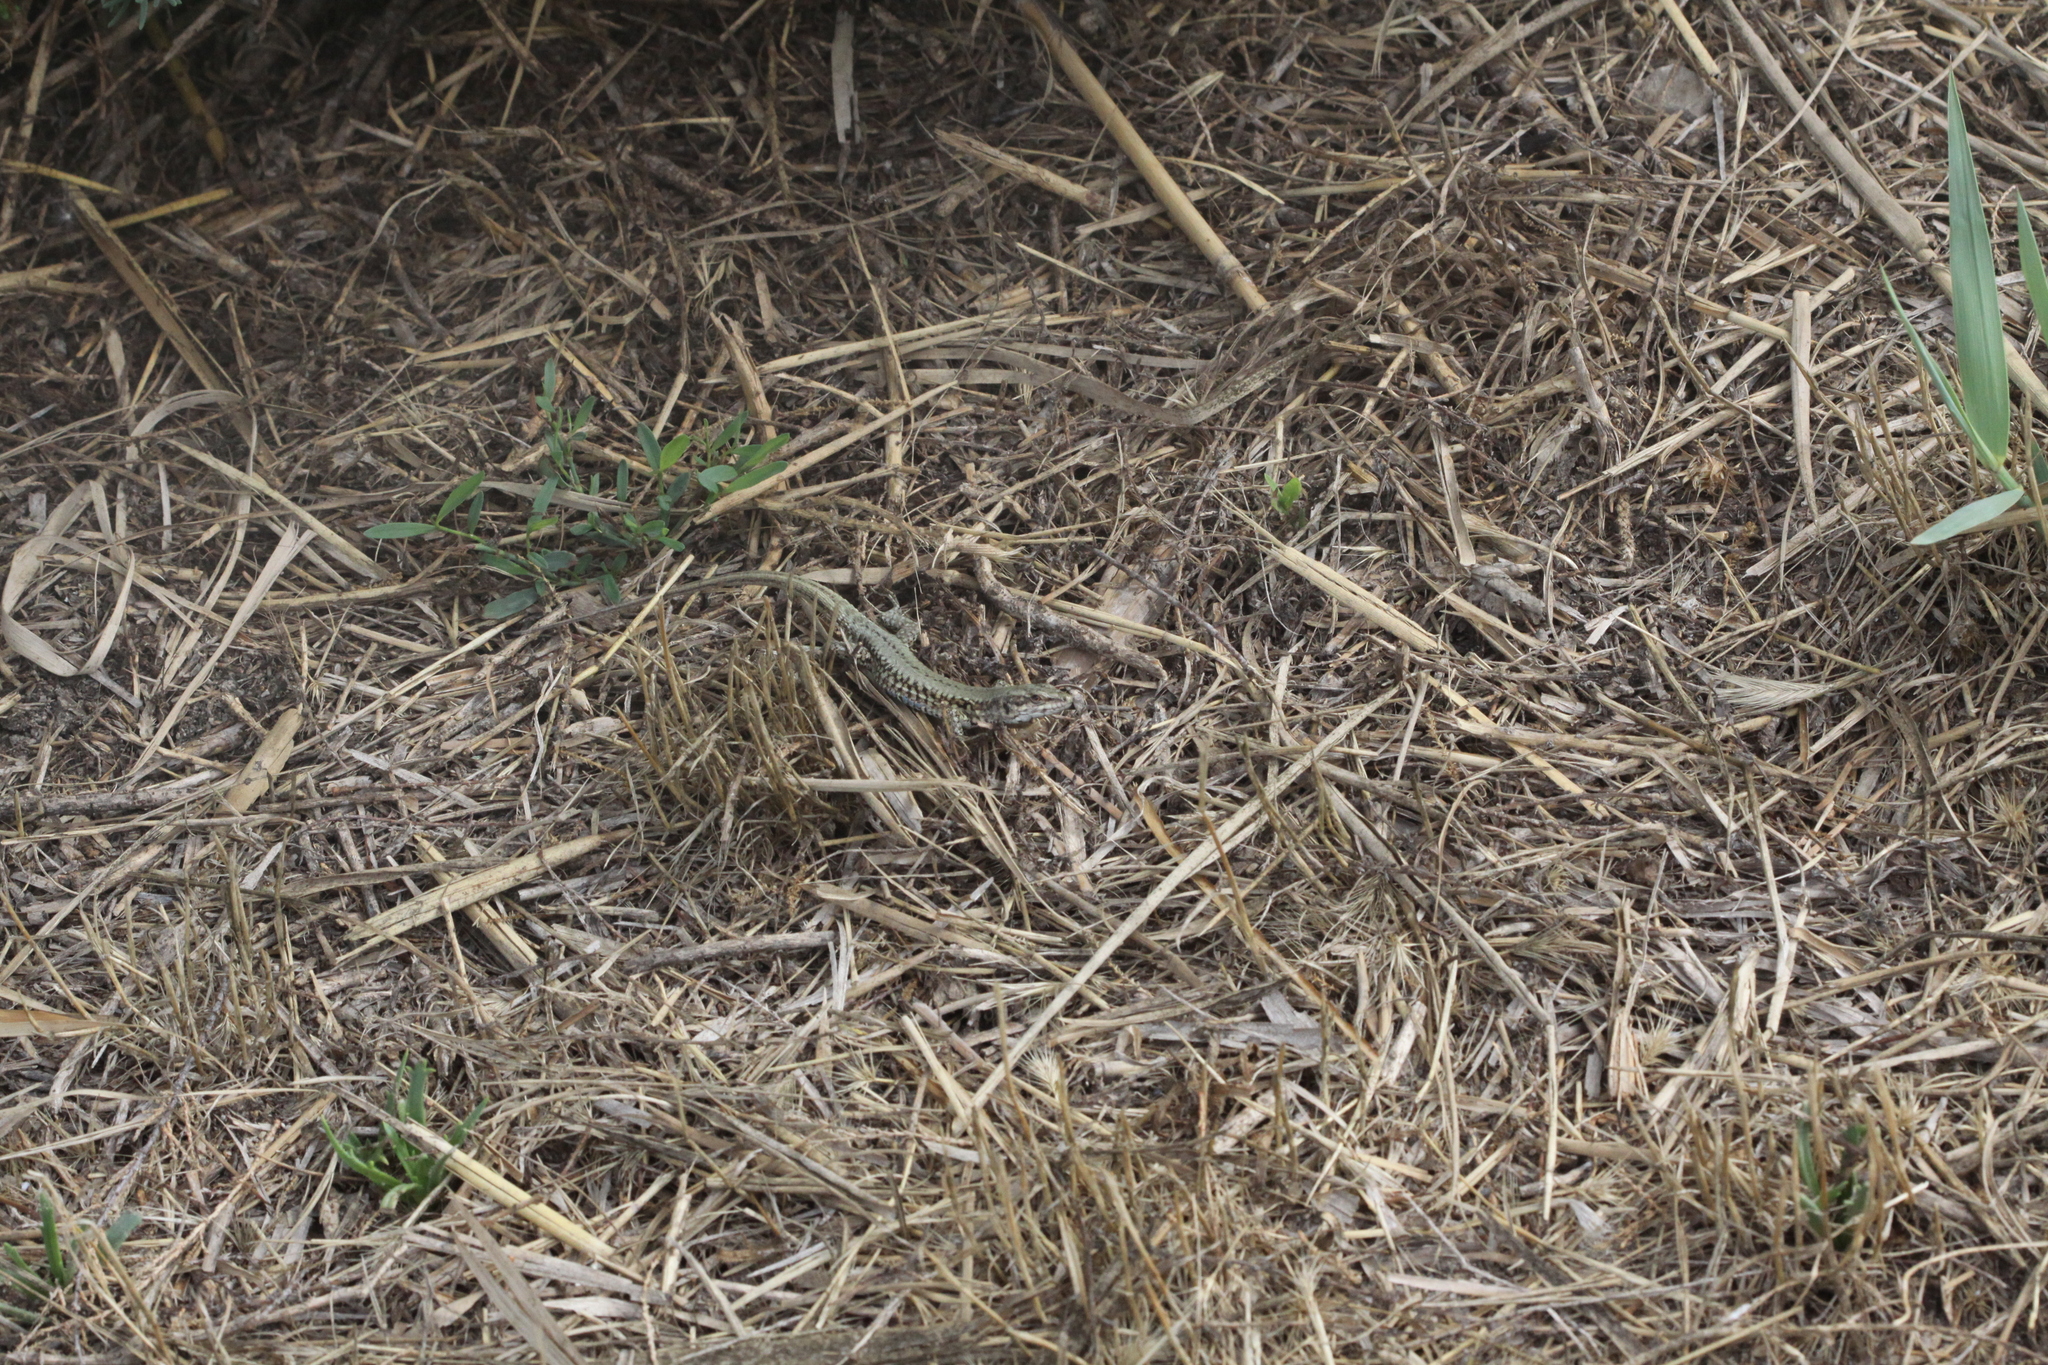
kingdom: Animalia
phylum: Chordata
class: Squamata
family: Lacertidae
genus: Podarcis
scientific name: Podarcis muralis
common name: Common wall lizard
